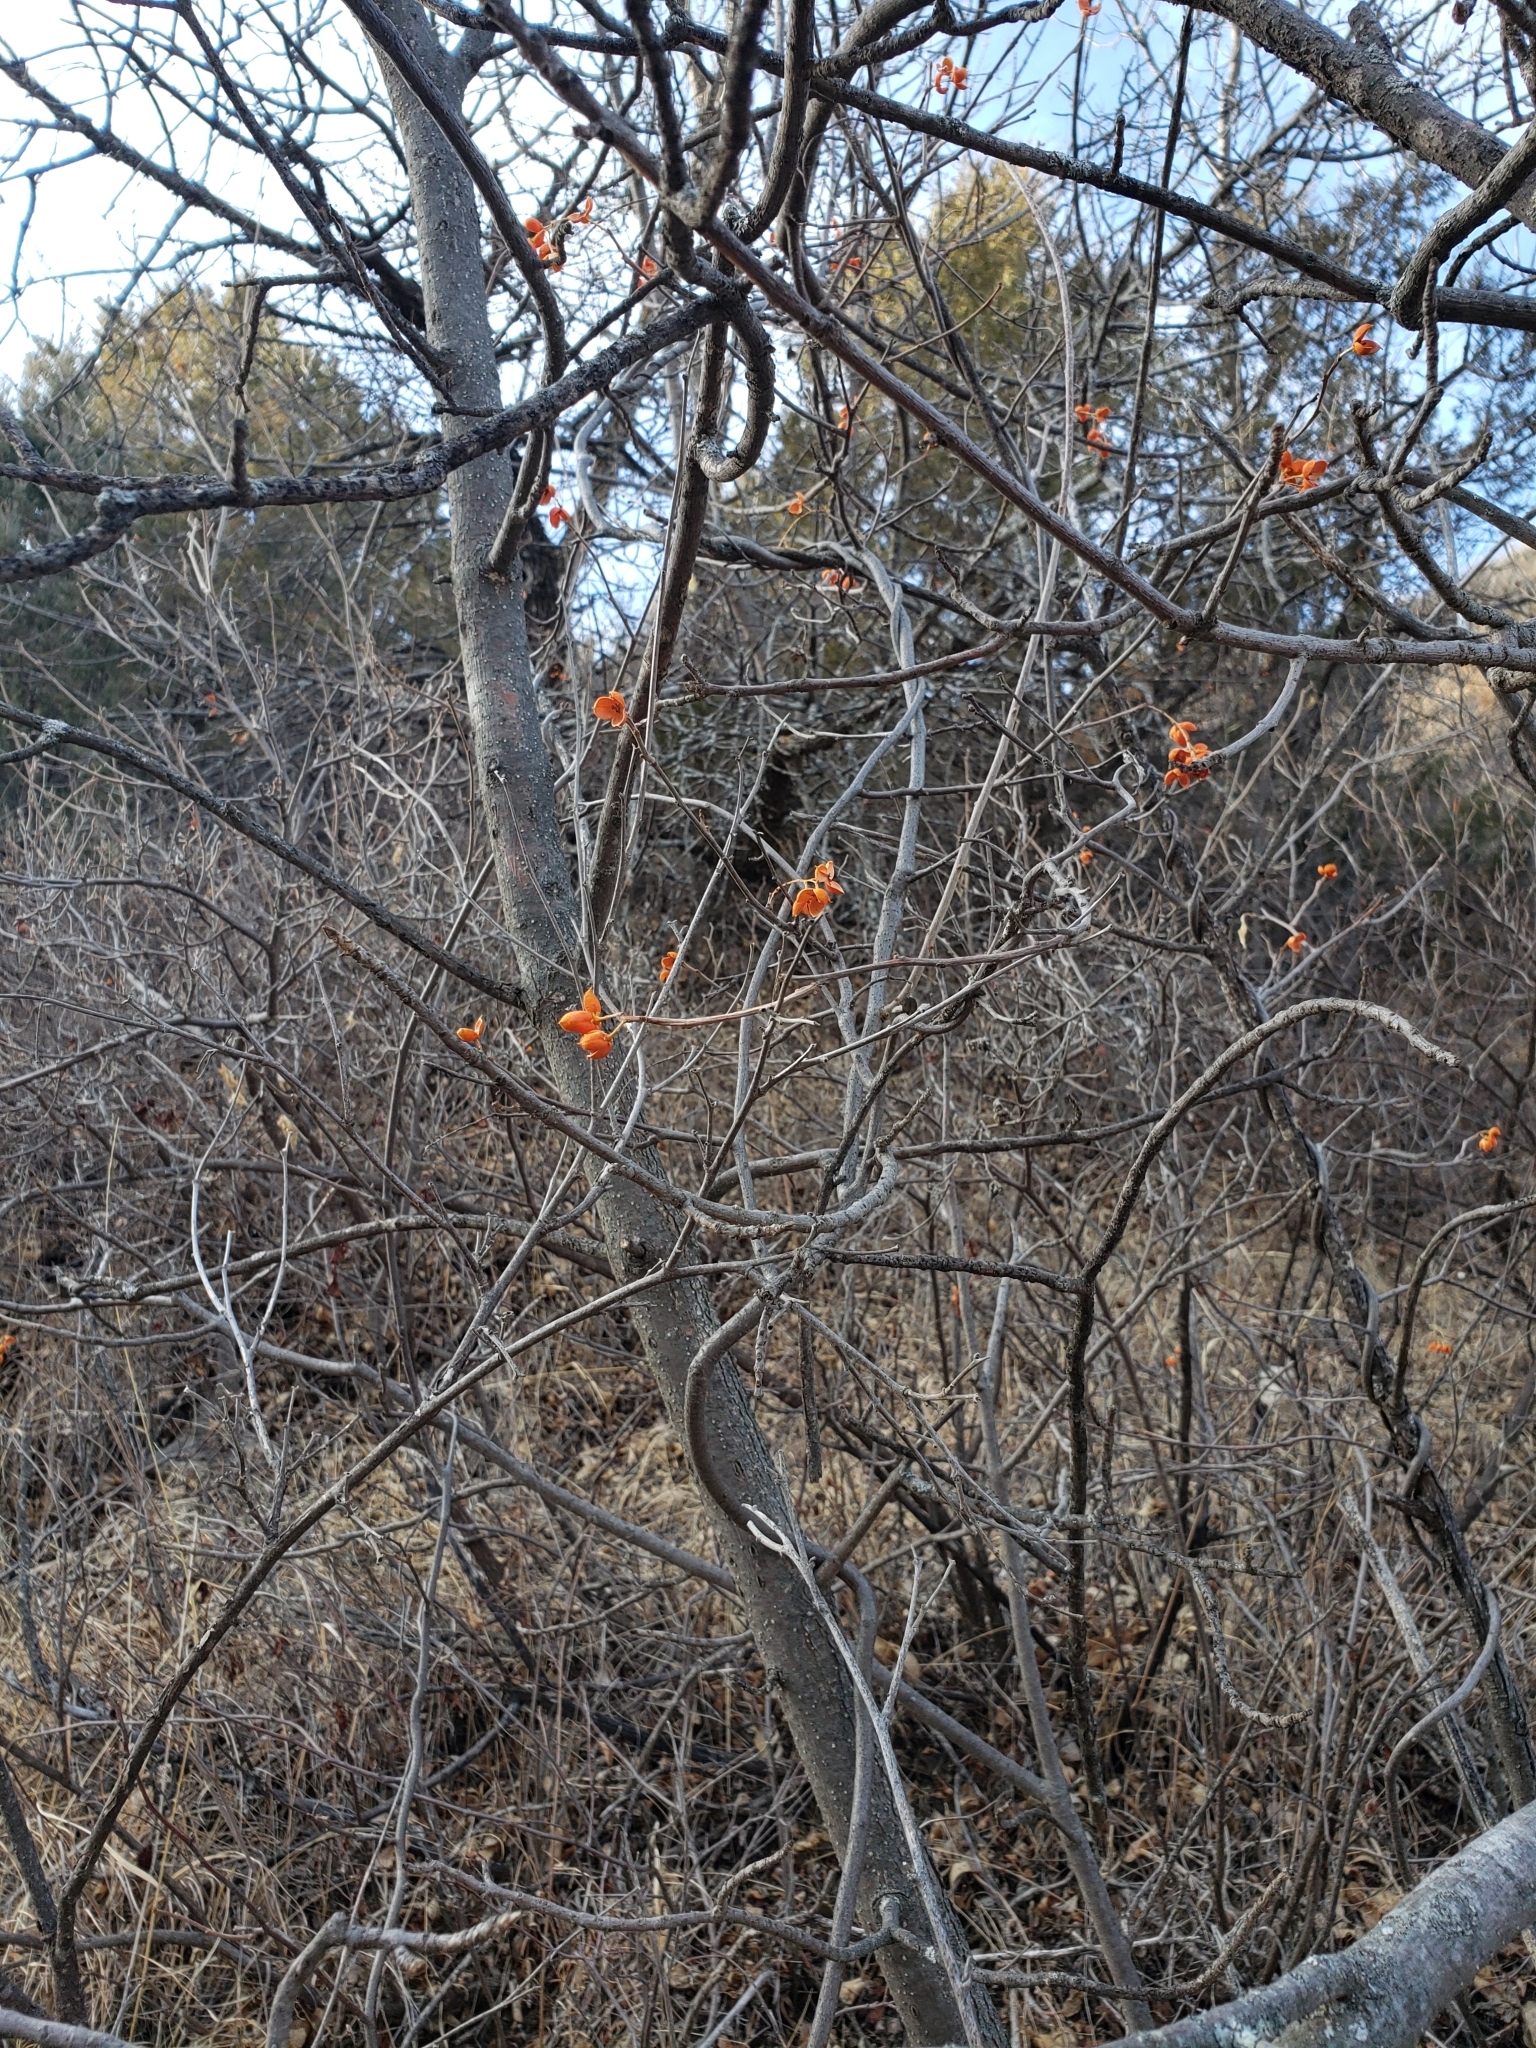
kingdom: Plantae
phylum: Tracheophyta
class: Magnoliopsida
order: Celastrales
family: Celastraceae
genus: Celastrus
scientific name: Celastrus scandens
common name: American bittersweet
